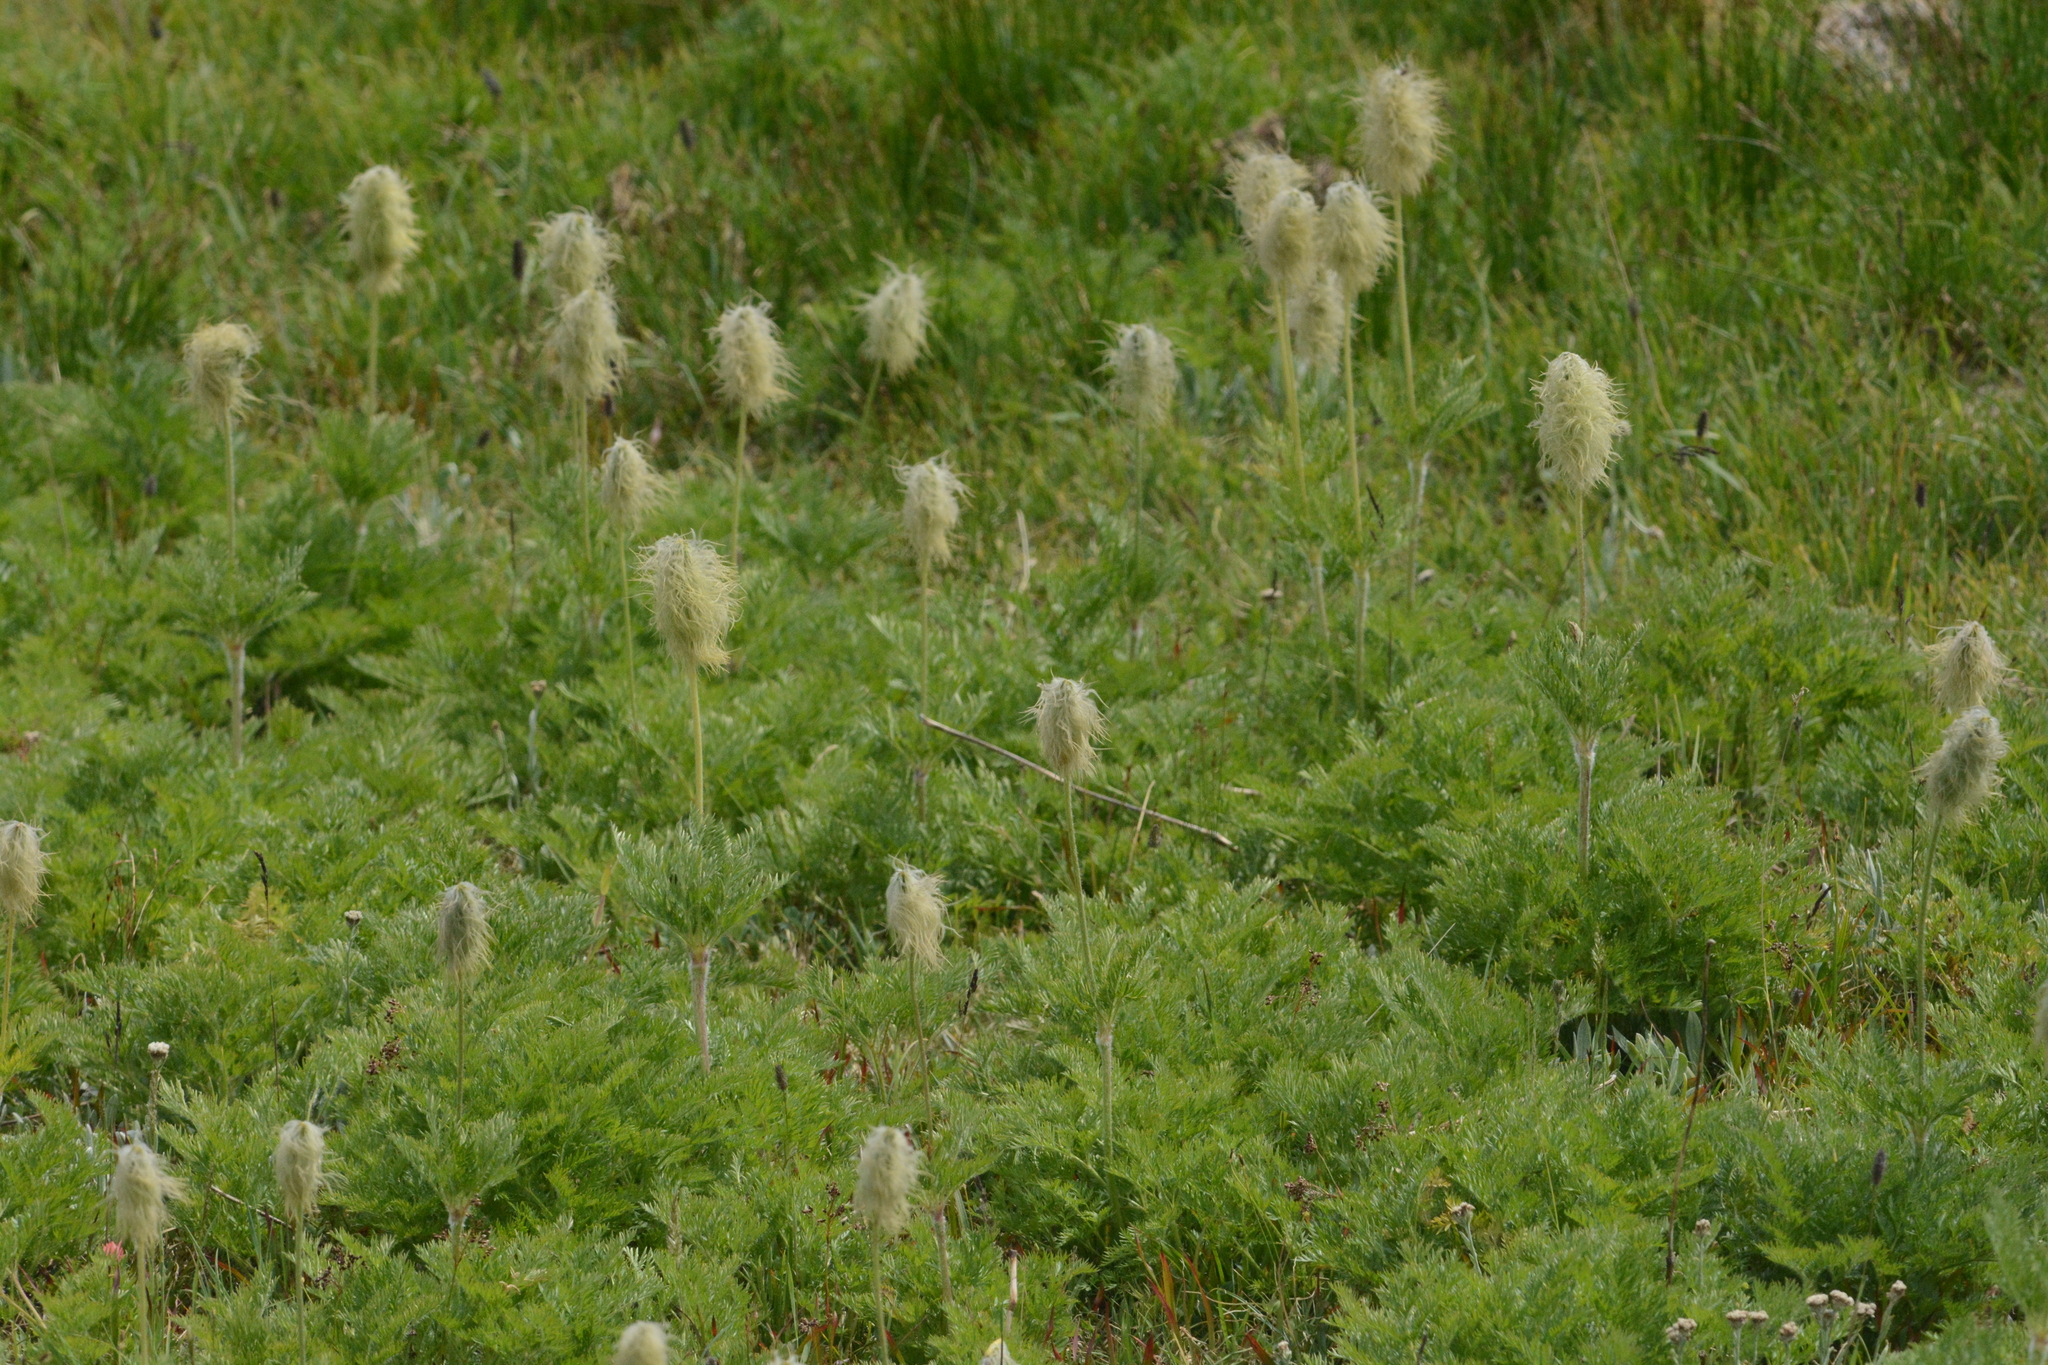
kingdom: Plantae
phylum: Tracheophyta
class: Magnoliopsida
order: Ranunculales
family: Ranunculaceae
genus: Pulsatilla
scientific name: Pulsatilla occidentalis
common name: Mountain pasqueflower
